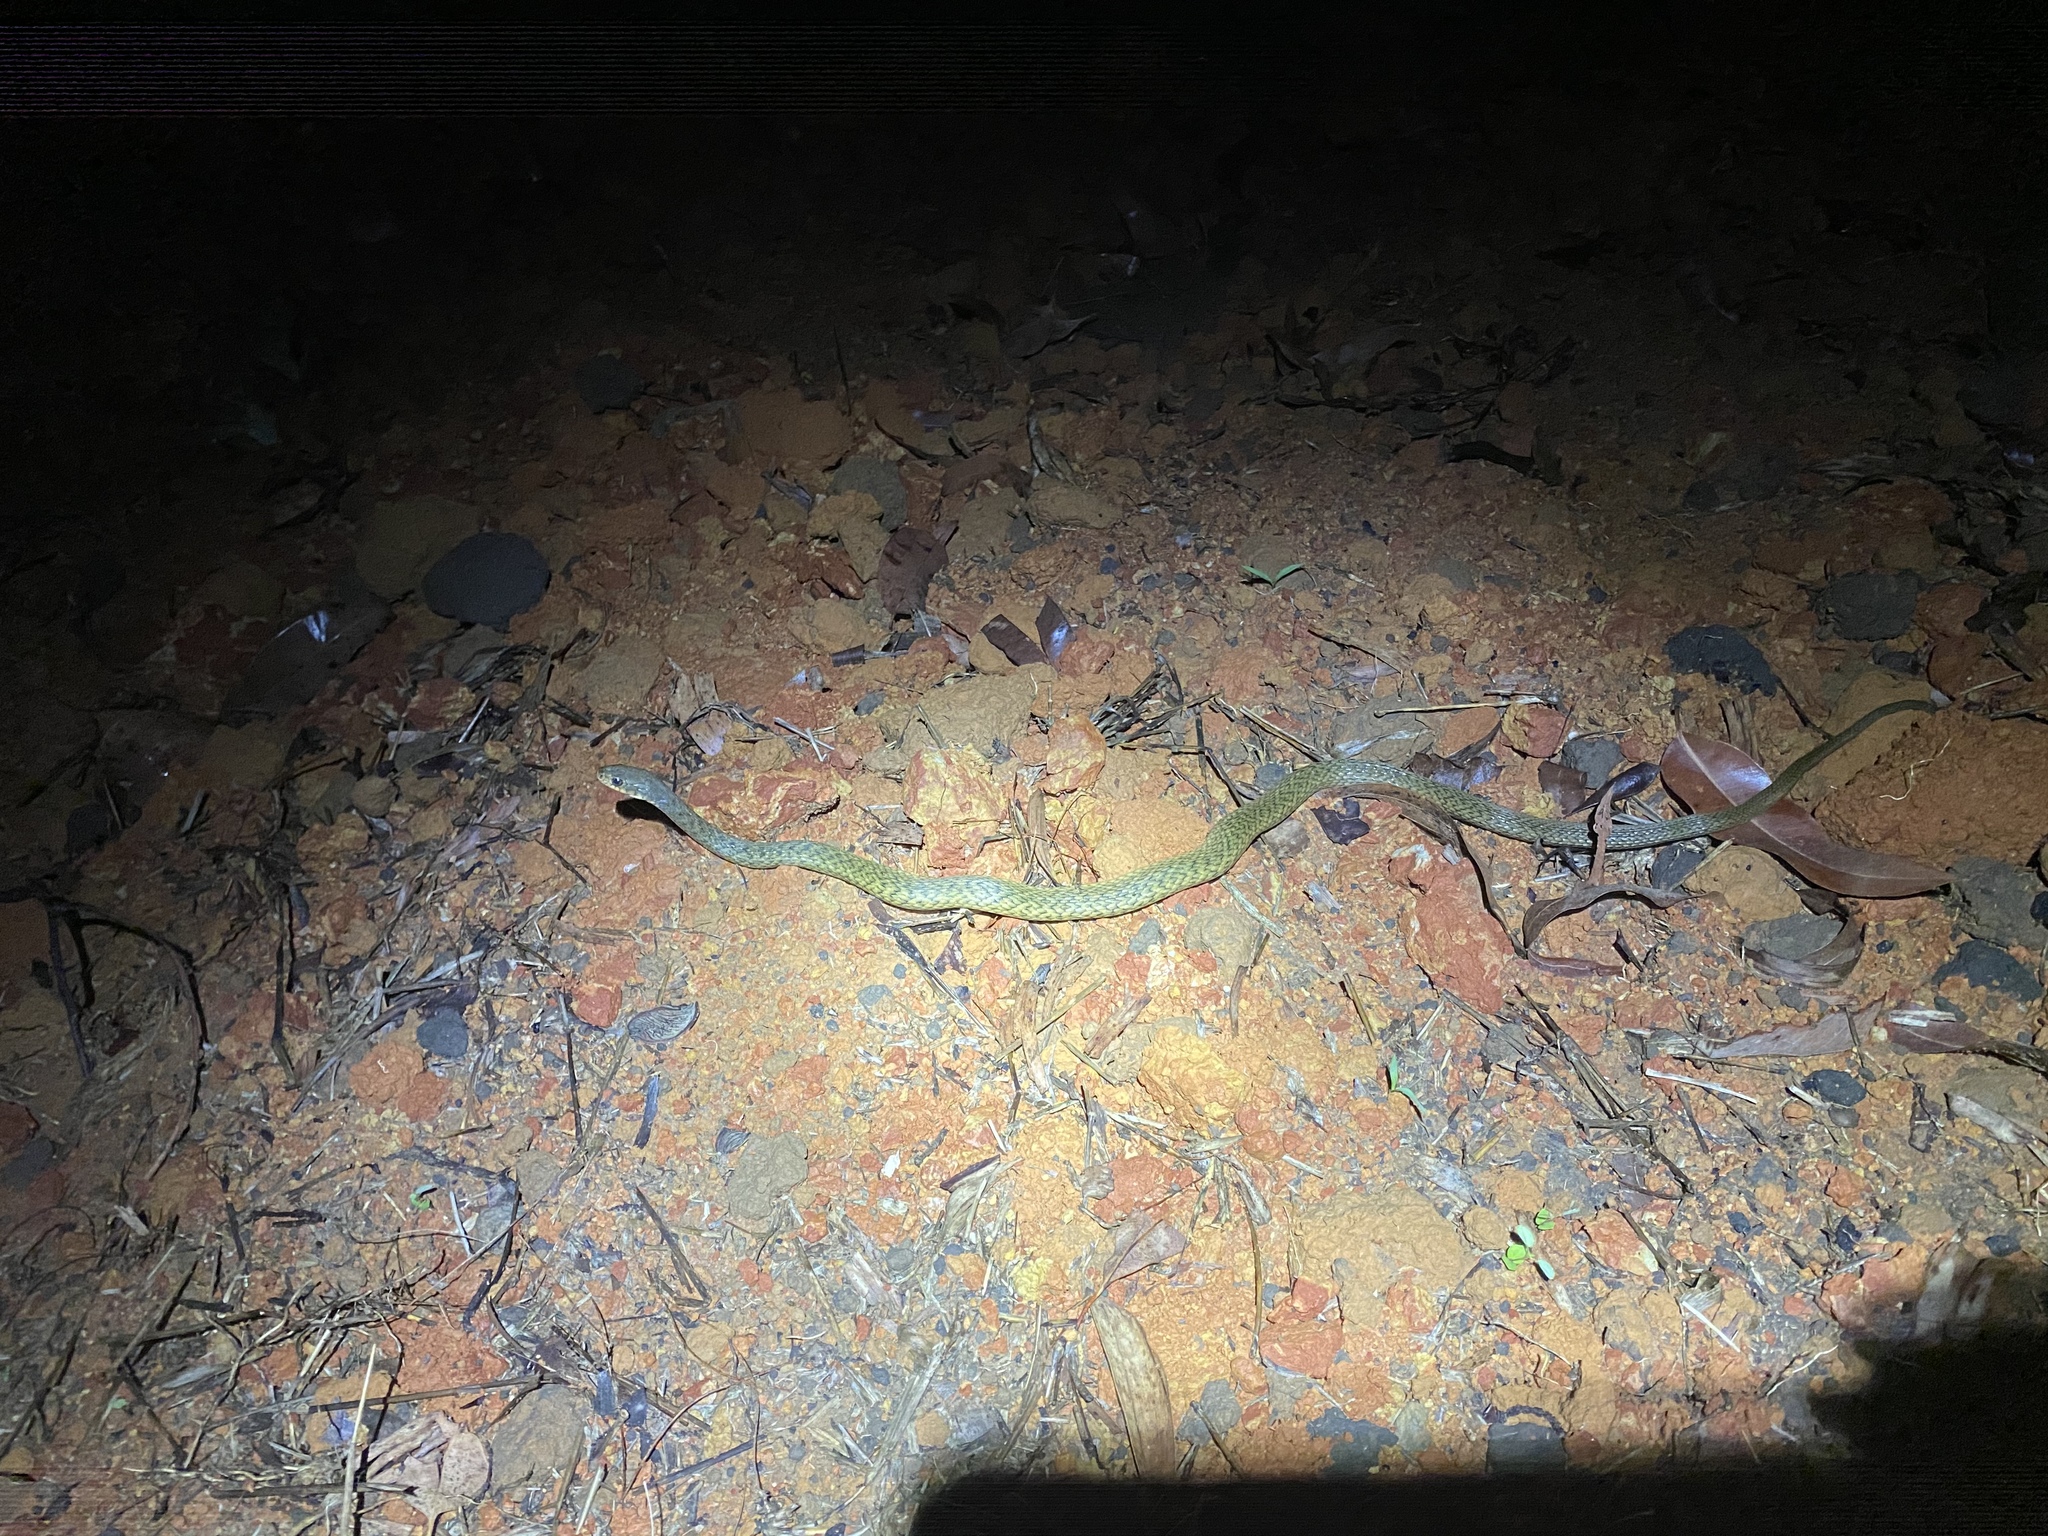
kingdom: Animalia
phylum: Chordata
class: Squamata
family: Colubridae
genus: Tropidonophis
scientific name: Tropidonophis mairii
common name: Common keelback
